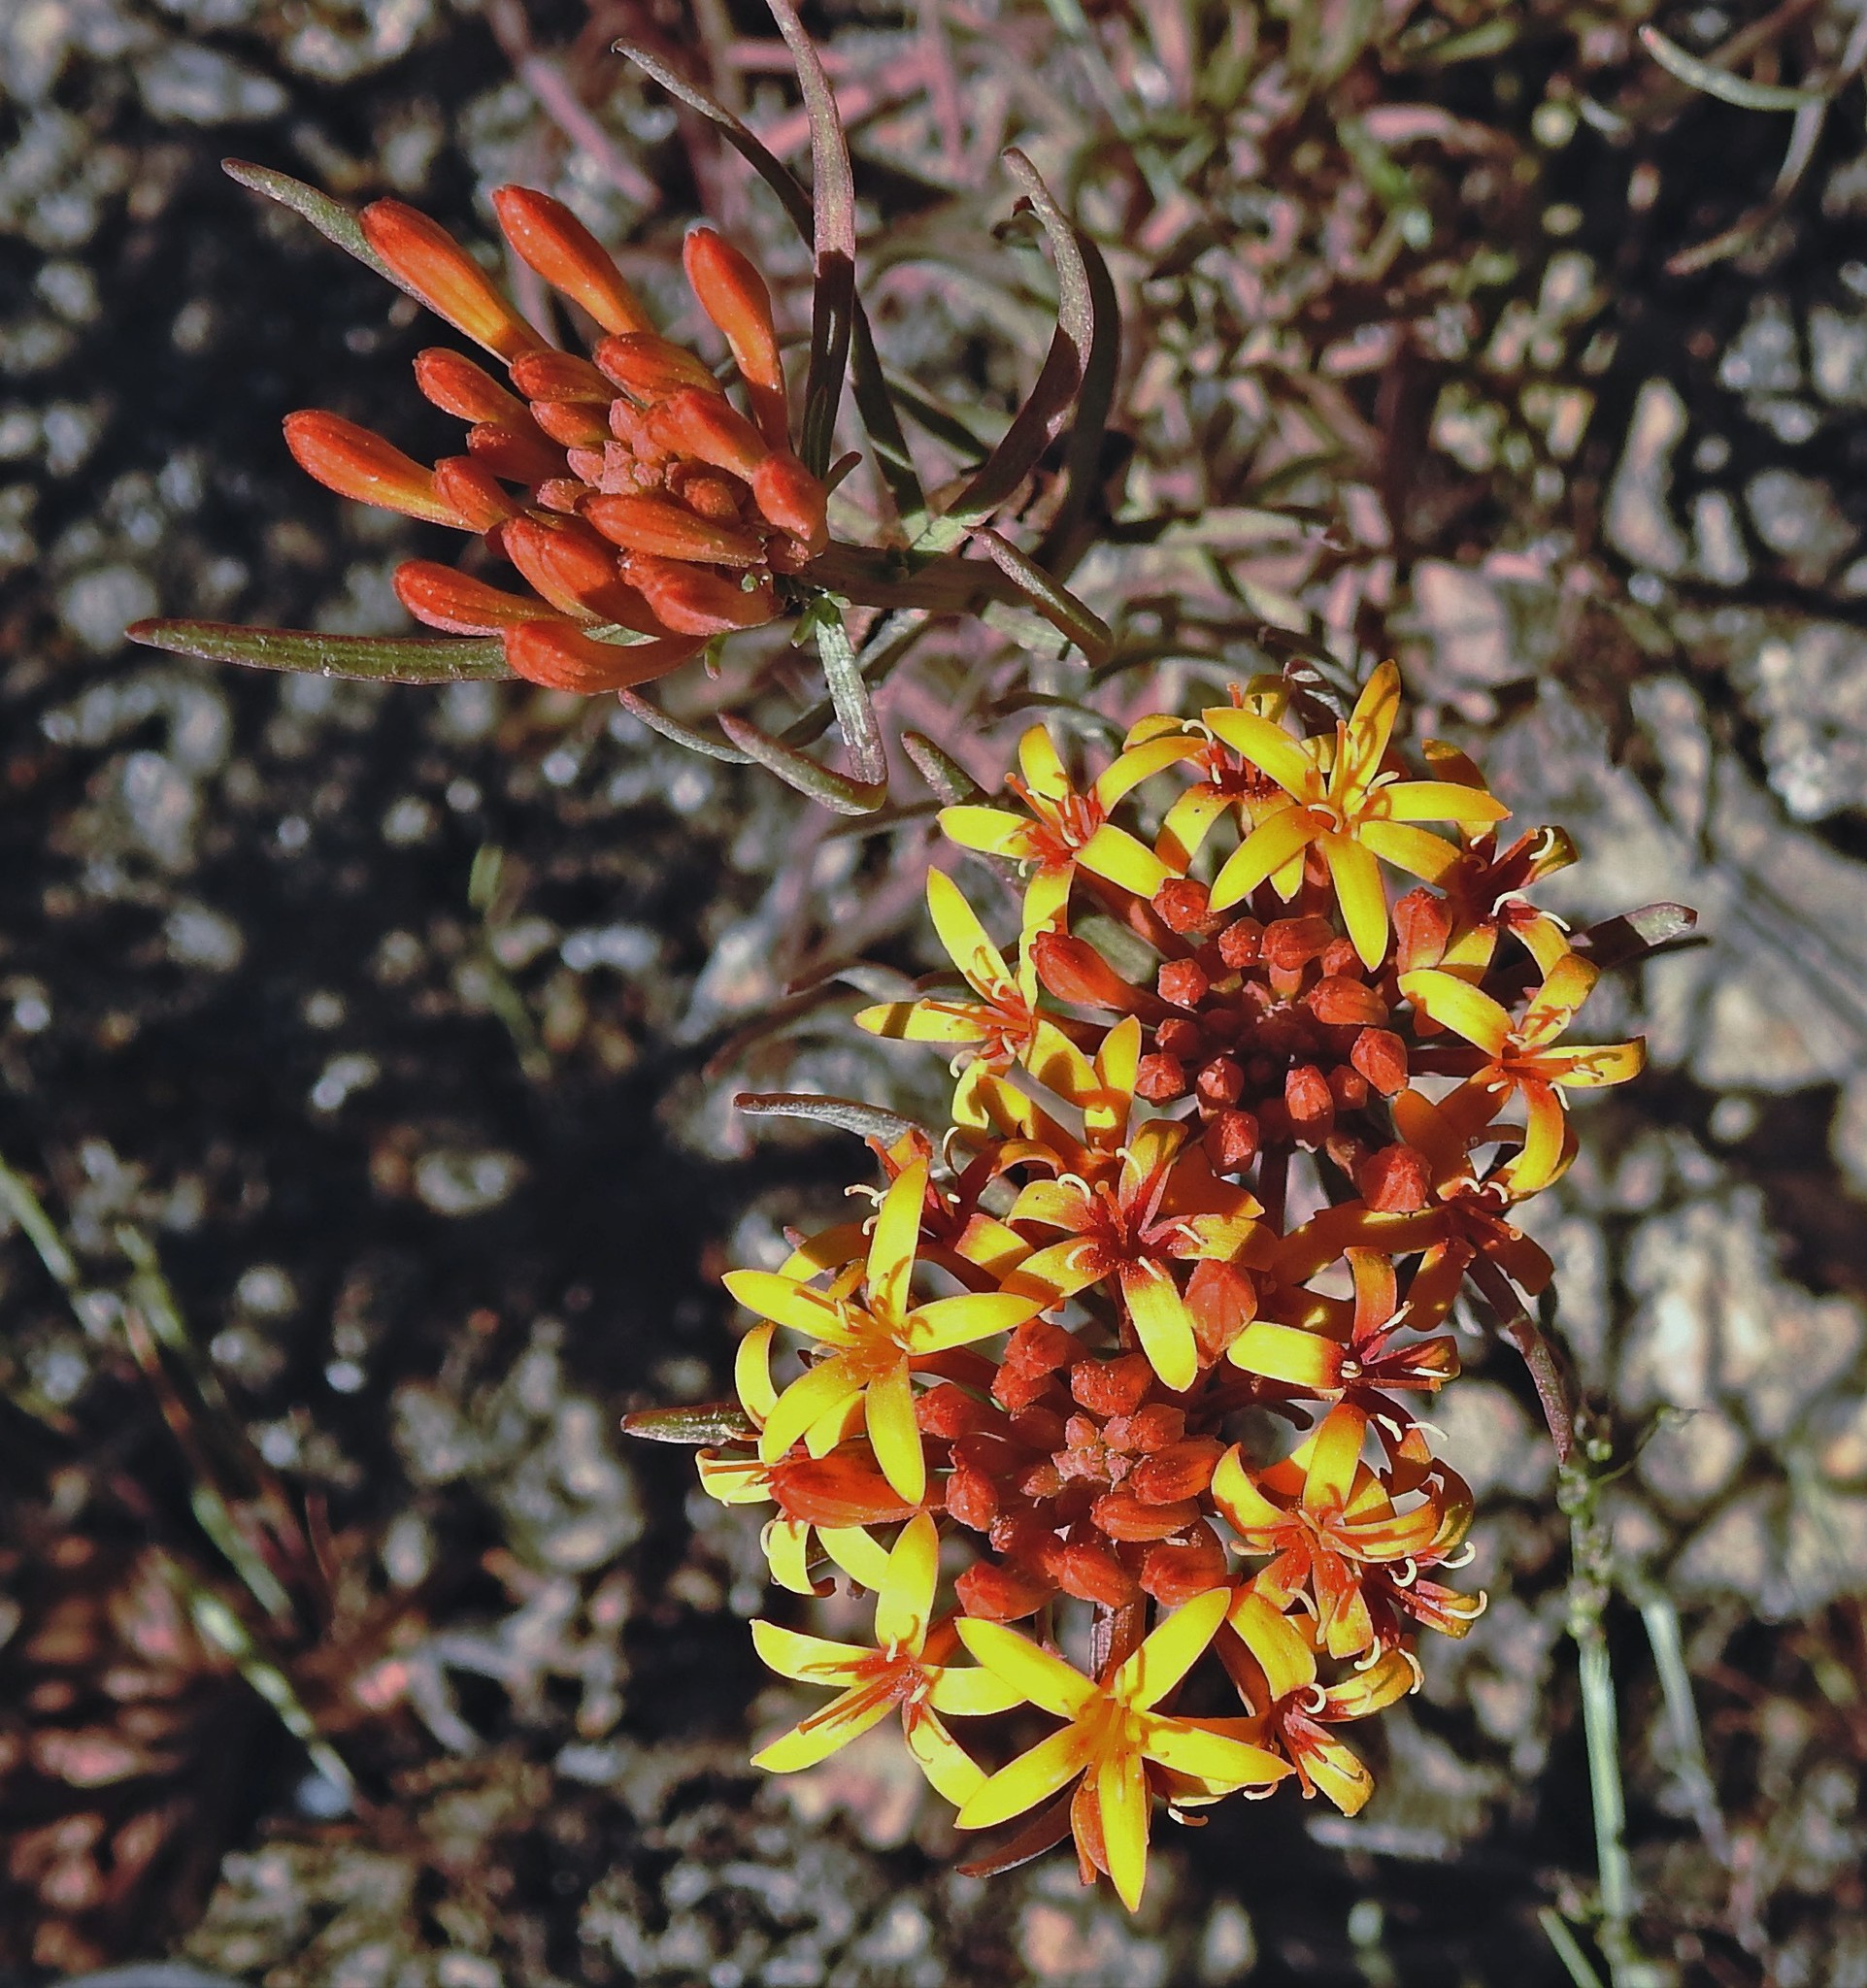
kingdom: Plantae
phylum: Tracheophyta
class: Magnoliopsida
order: Santalales
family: Schoepfiaceae
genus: Quinchamalium
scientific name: Quinchamalium chilense
